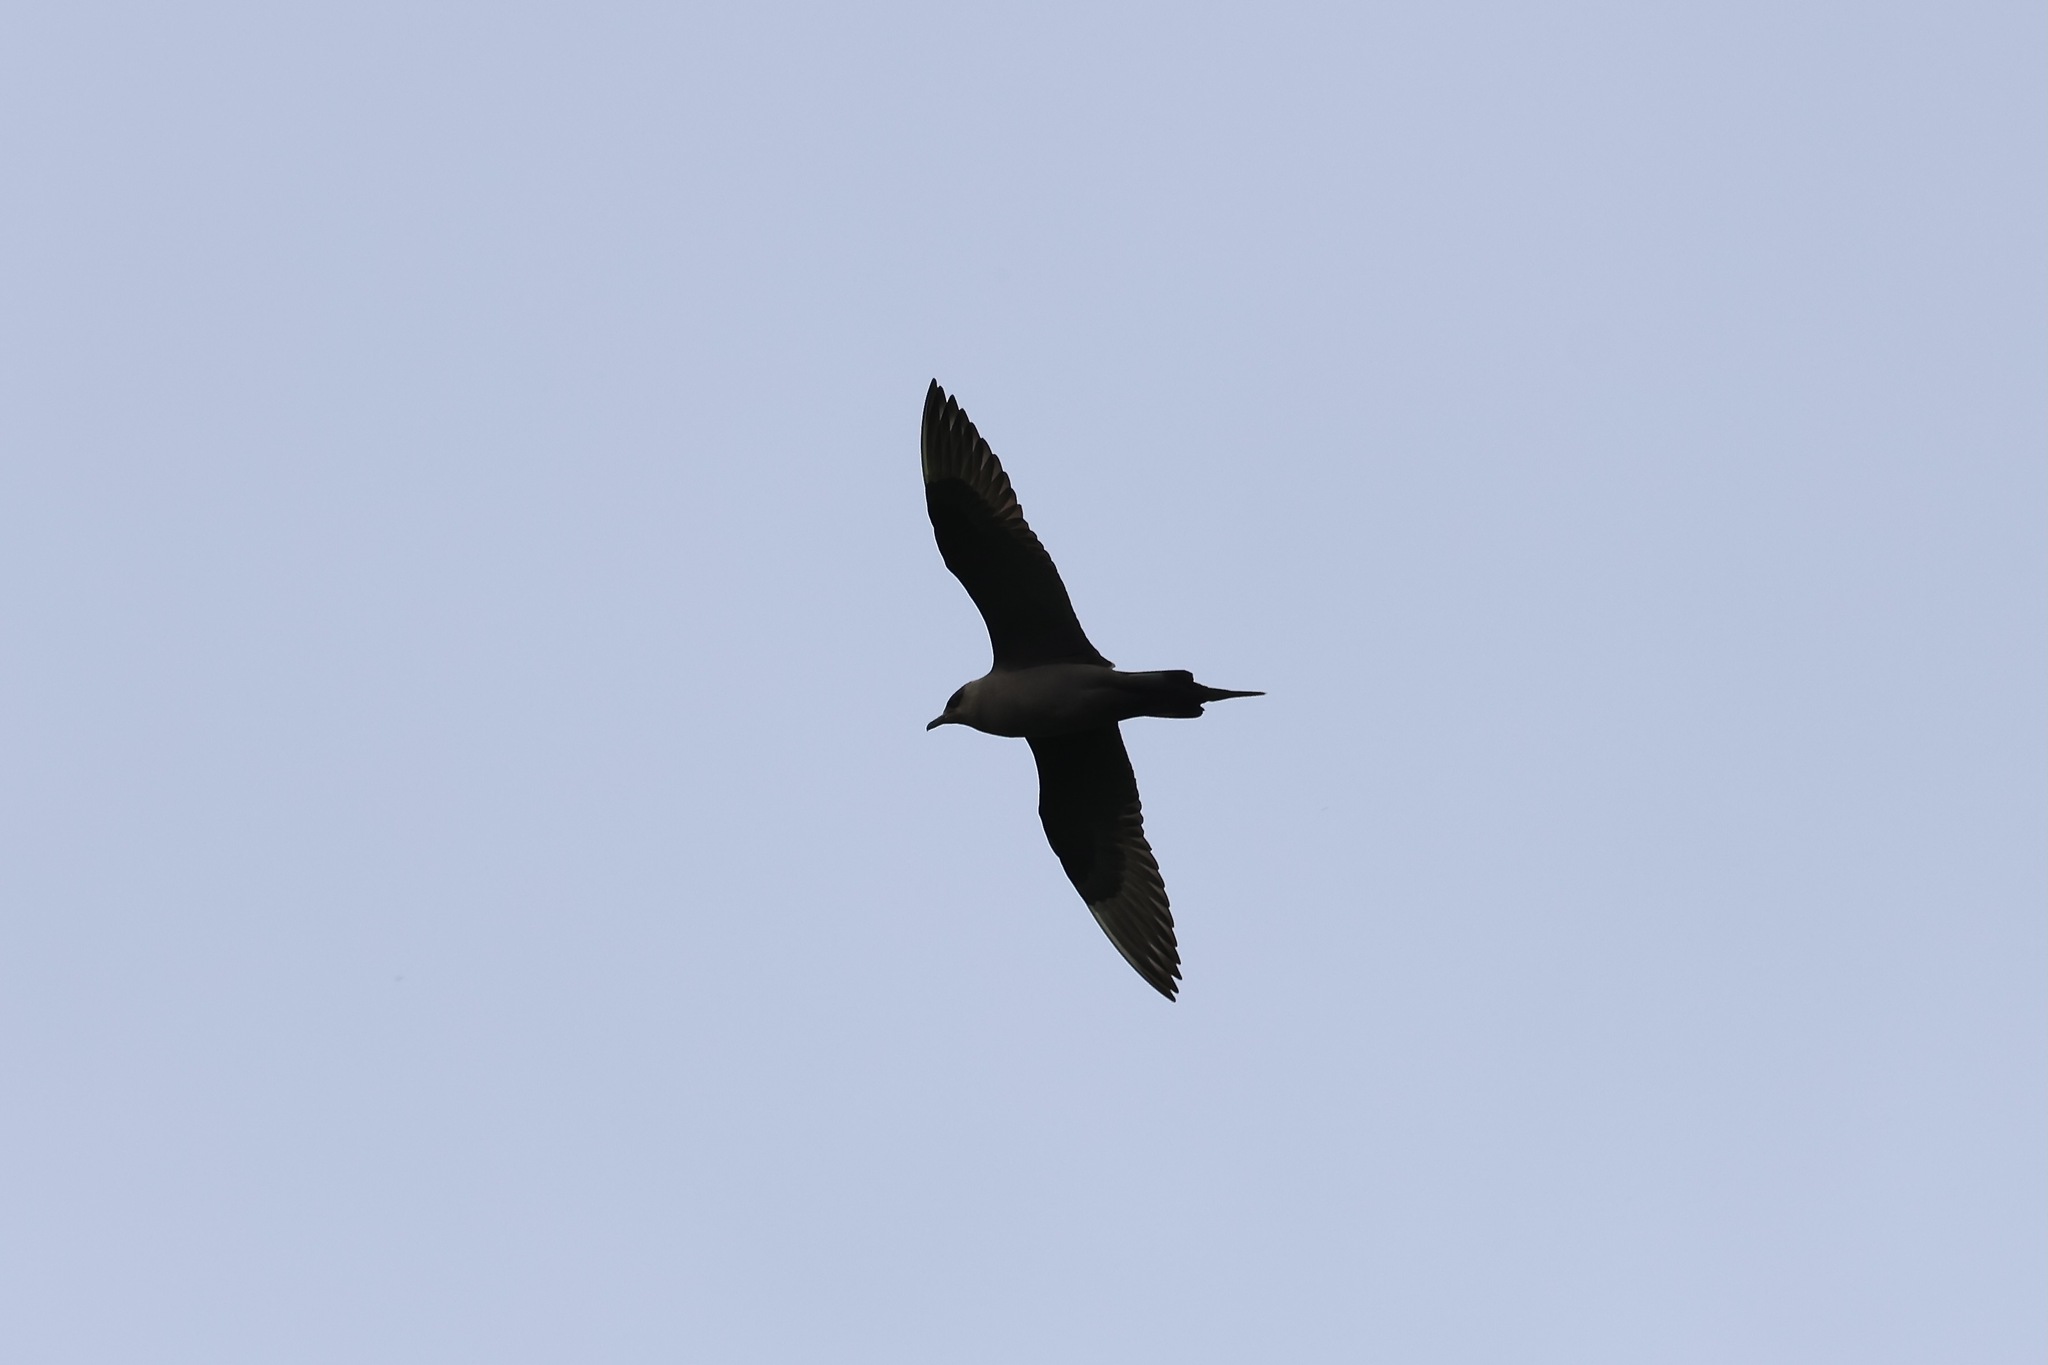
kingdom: Animalia
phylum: Chordata
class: Aves
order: Charadriiformes
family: Stercorariidae
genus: Stercorarius
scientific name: Stercorarius parasiticus
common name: Parasitic jaeger
